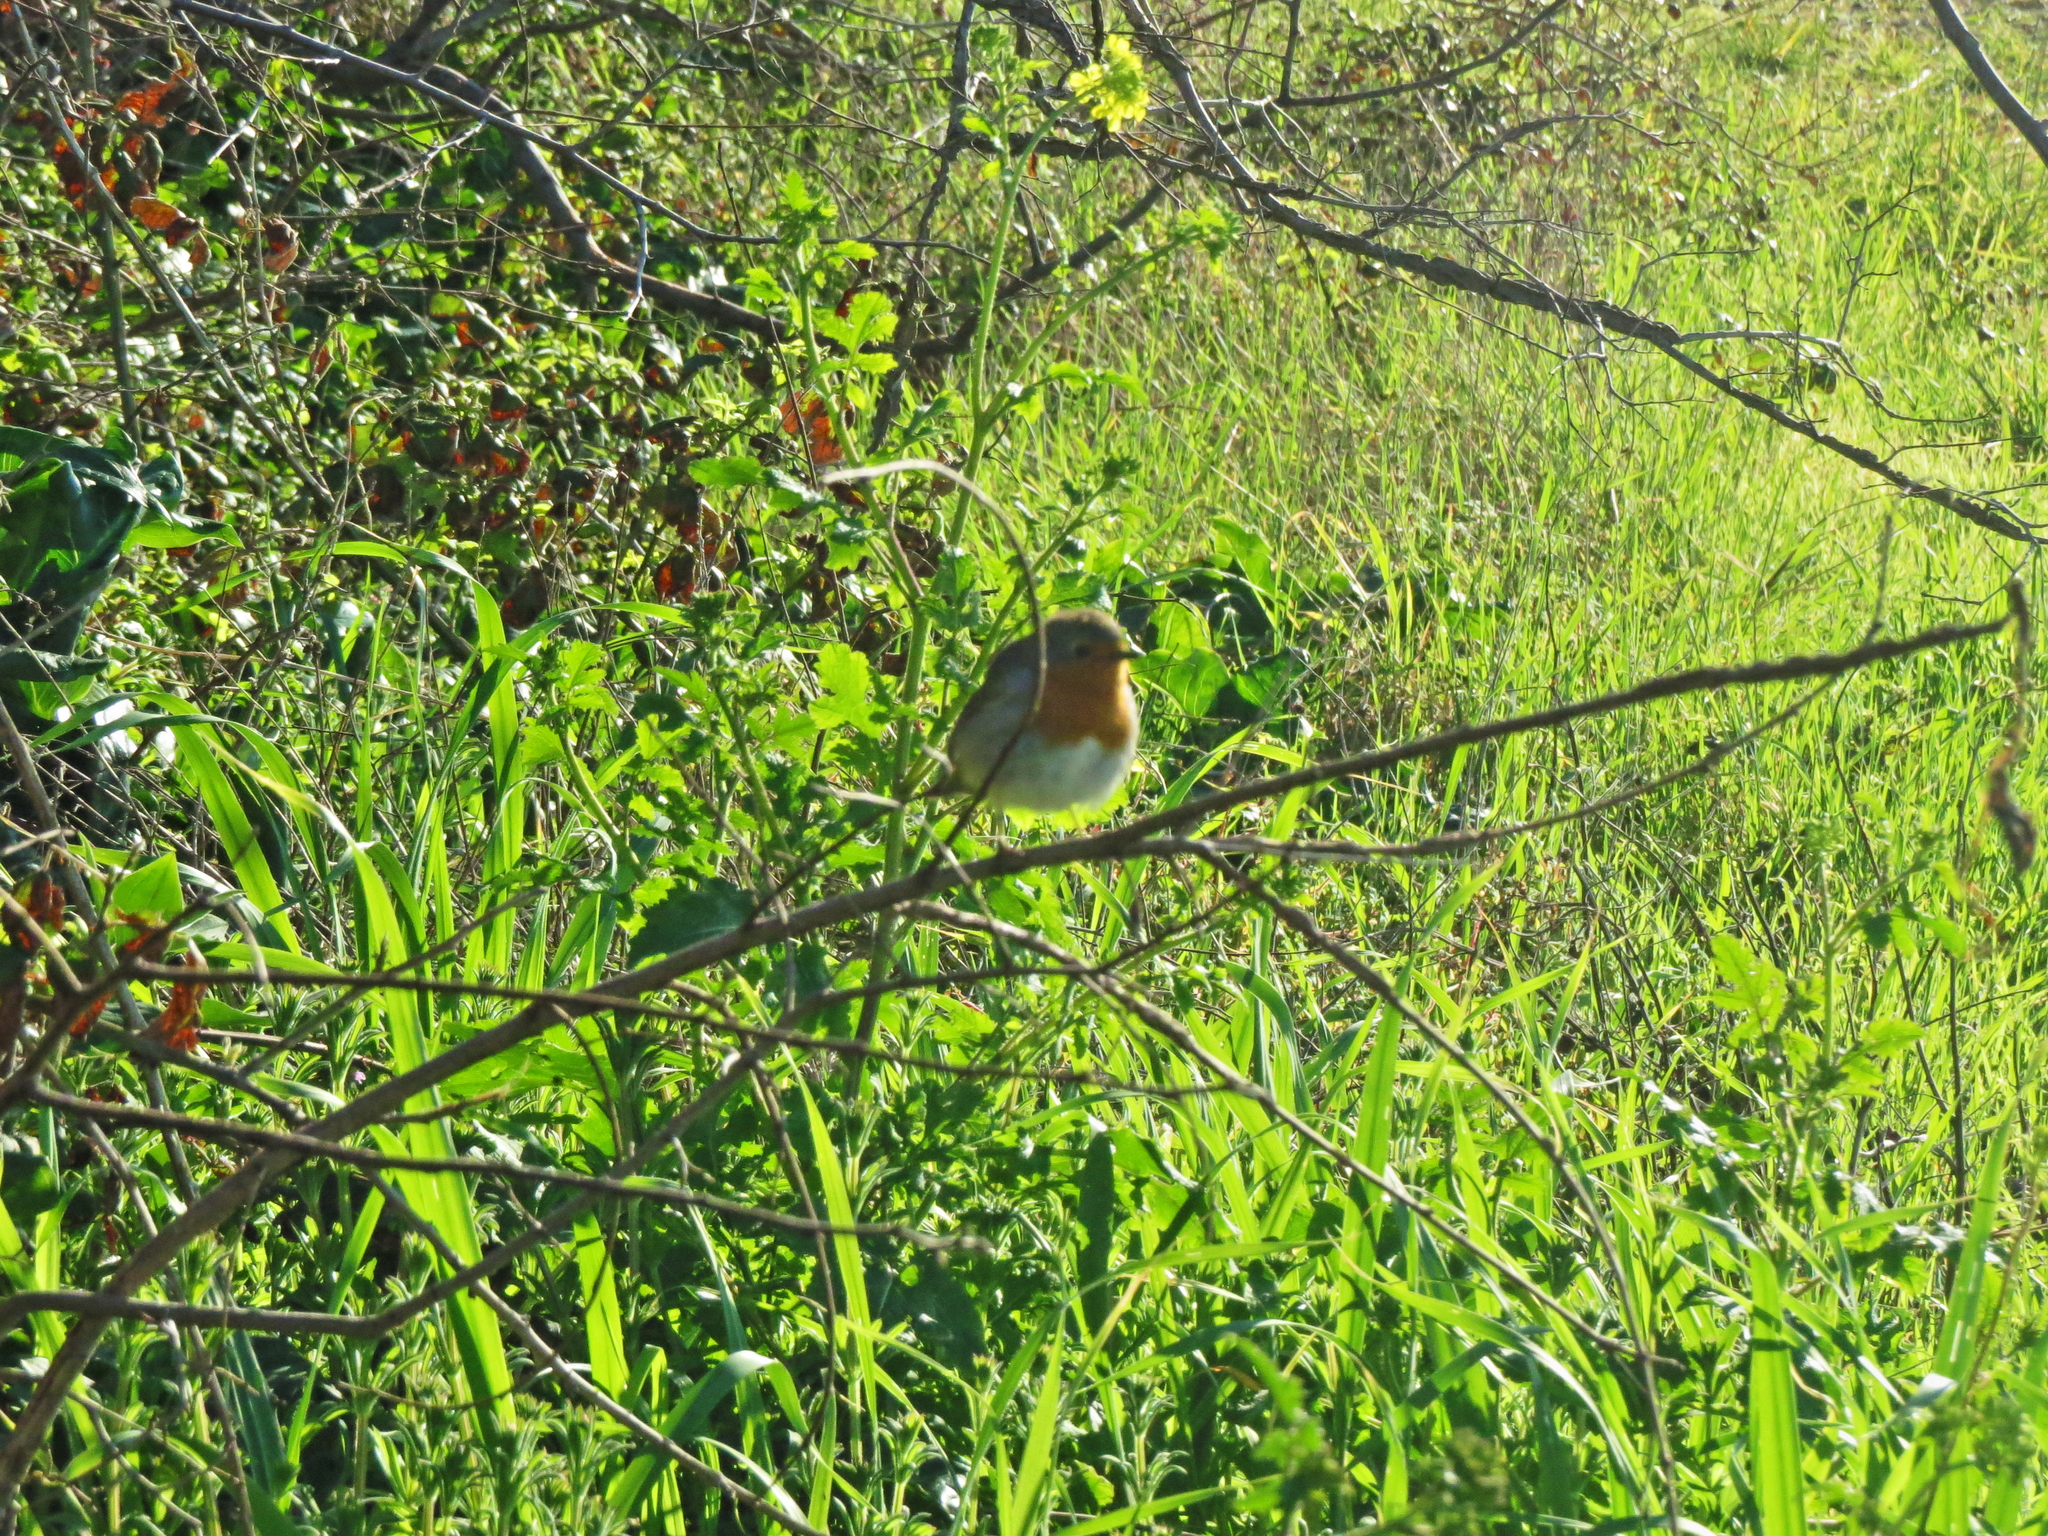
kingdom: Animalia
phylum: Chordata
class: Aves
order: Passeriformes
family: Muscicapidae
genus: Erithacus
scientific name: Erithacus rubecula
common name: European robin
